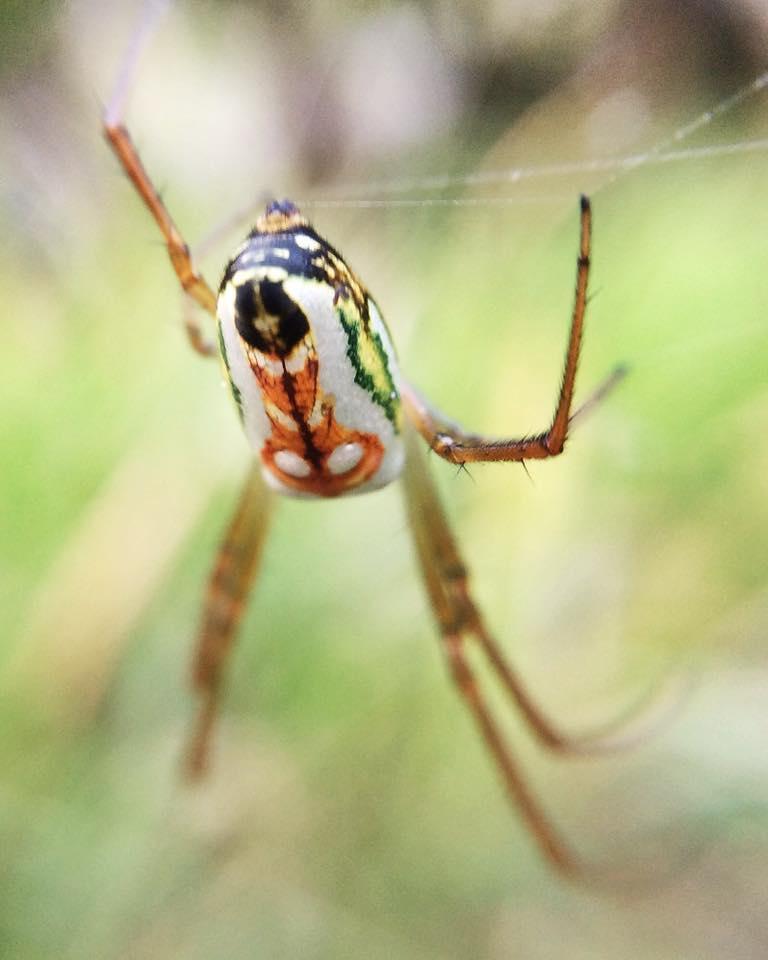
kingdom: Animalia
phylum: Arthropoda
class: Arachnida
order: Araneae
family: Tetragnathidae
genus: Leucauge
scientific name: Leucauge festiva
